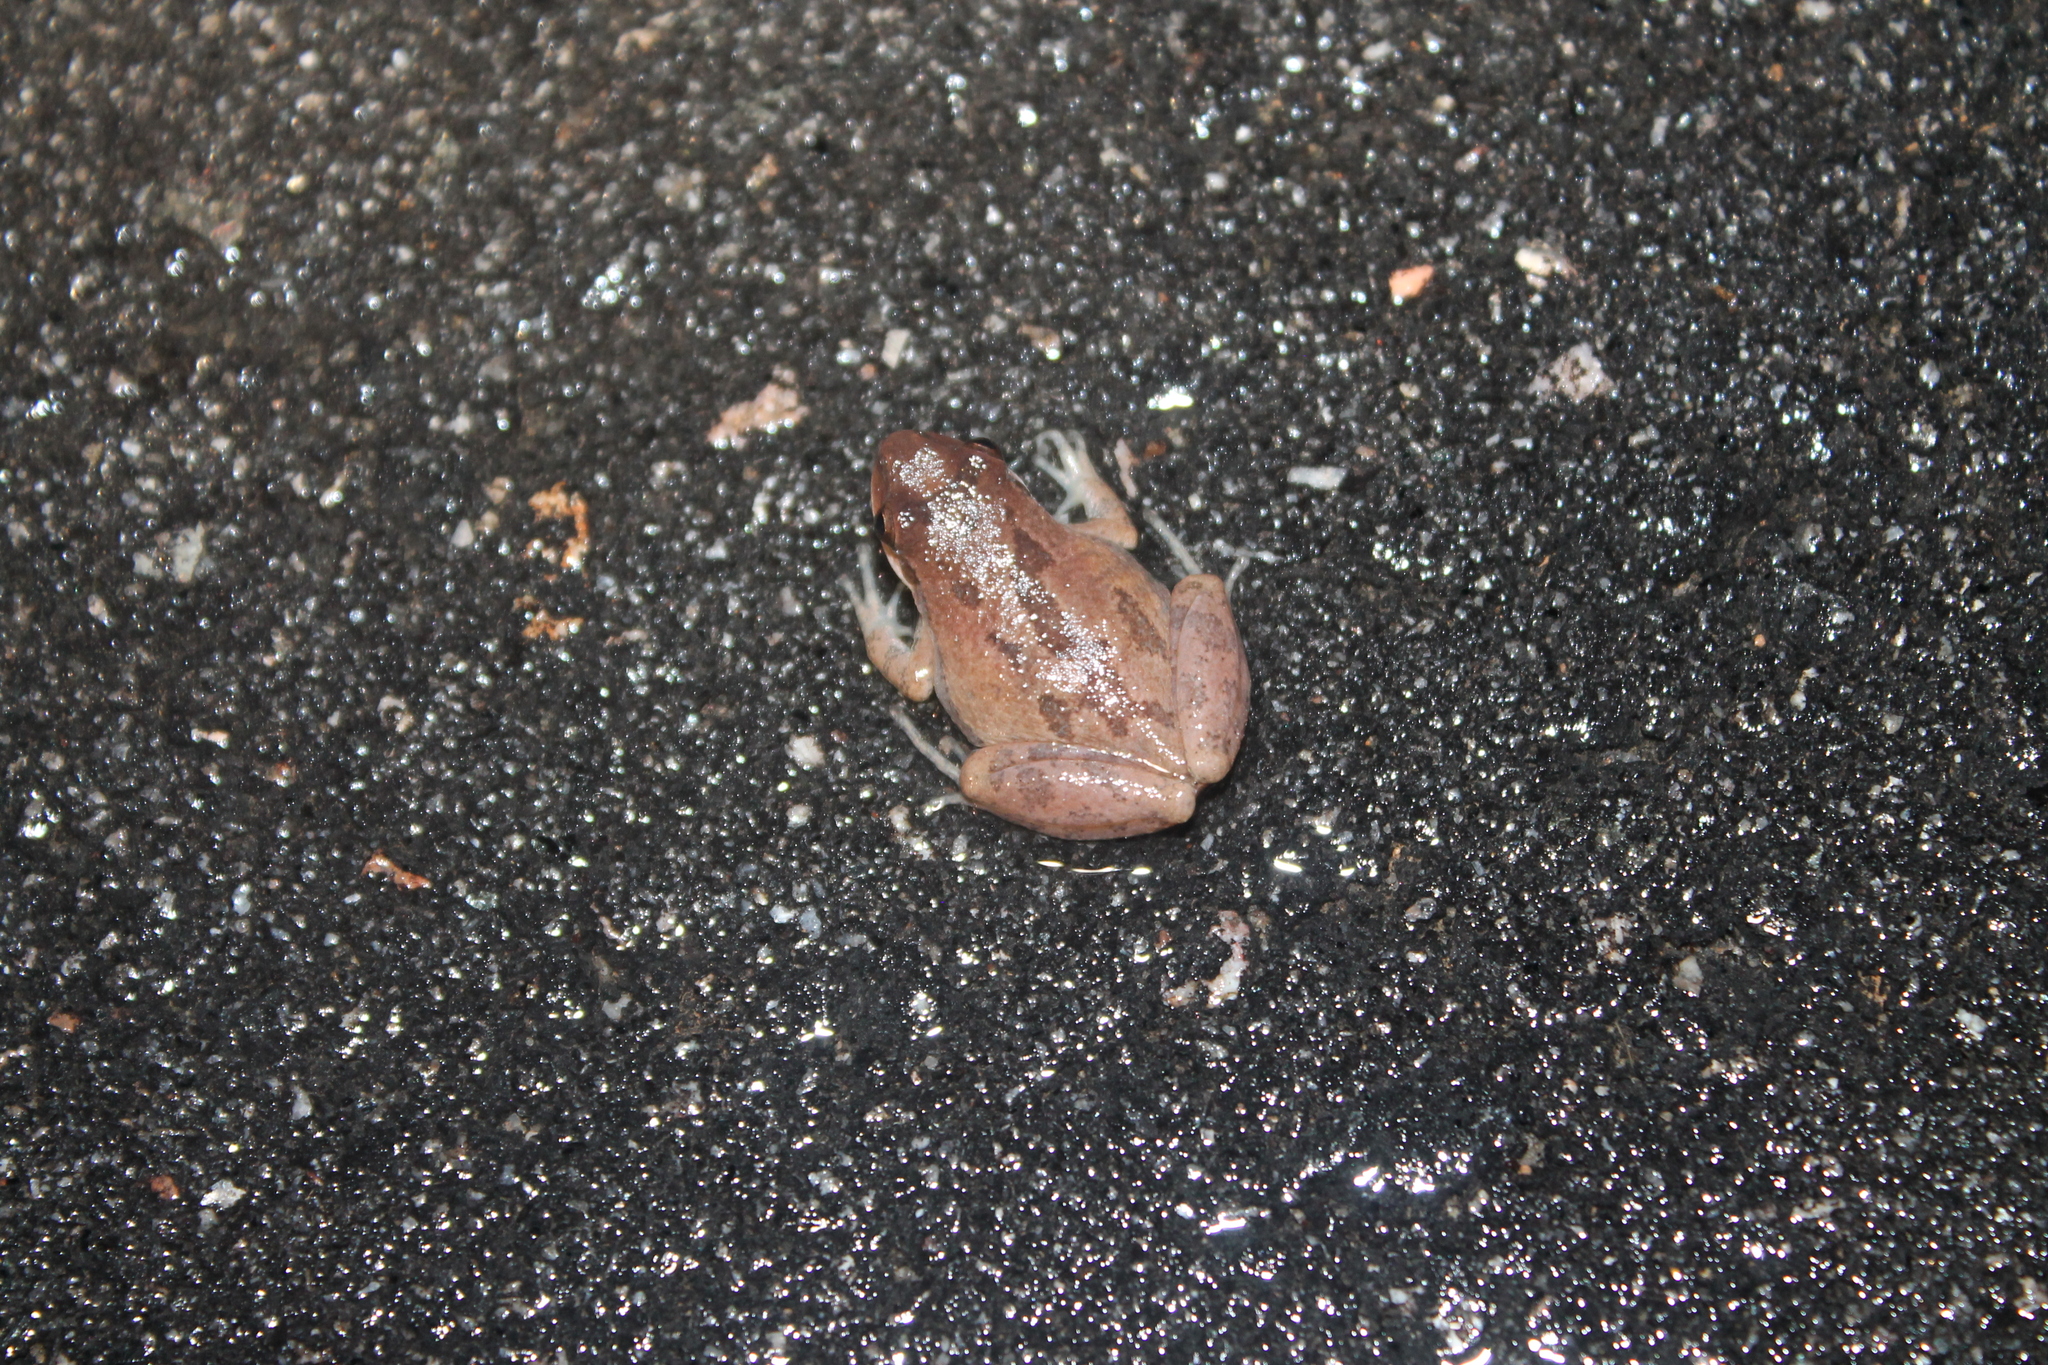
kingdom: Animalia
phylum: Chordata
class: Amphibia
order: Anura
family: Hylidae
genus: Pseudacris
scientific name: Pseudacris feriarum
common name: Upland chorus frog
